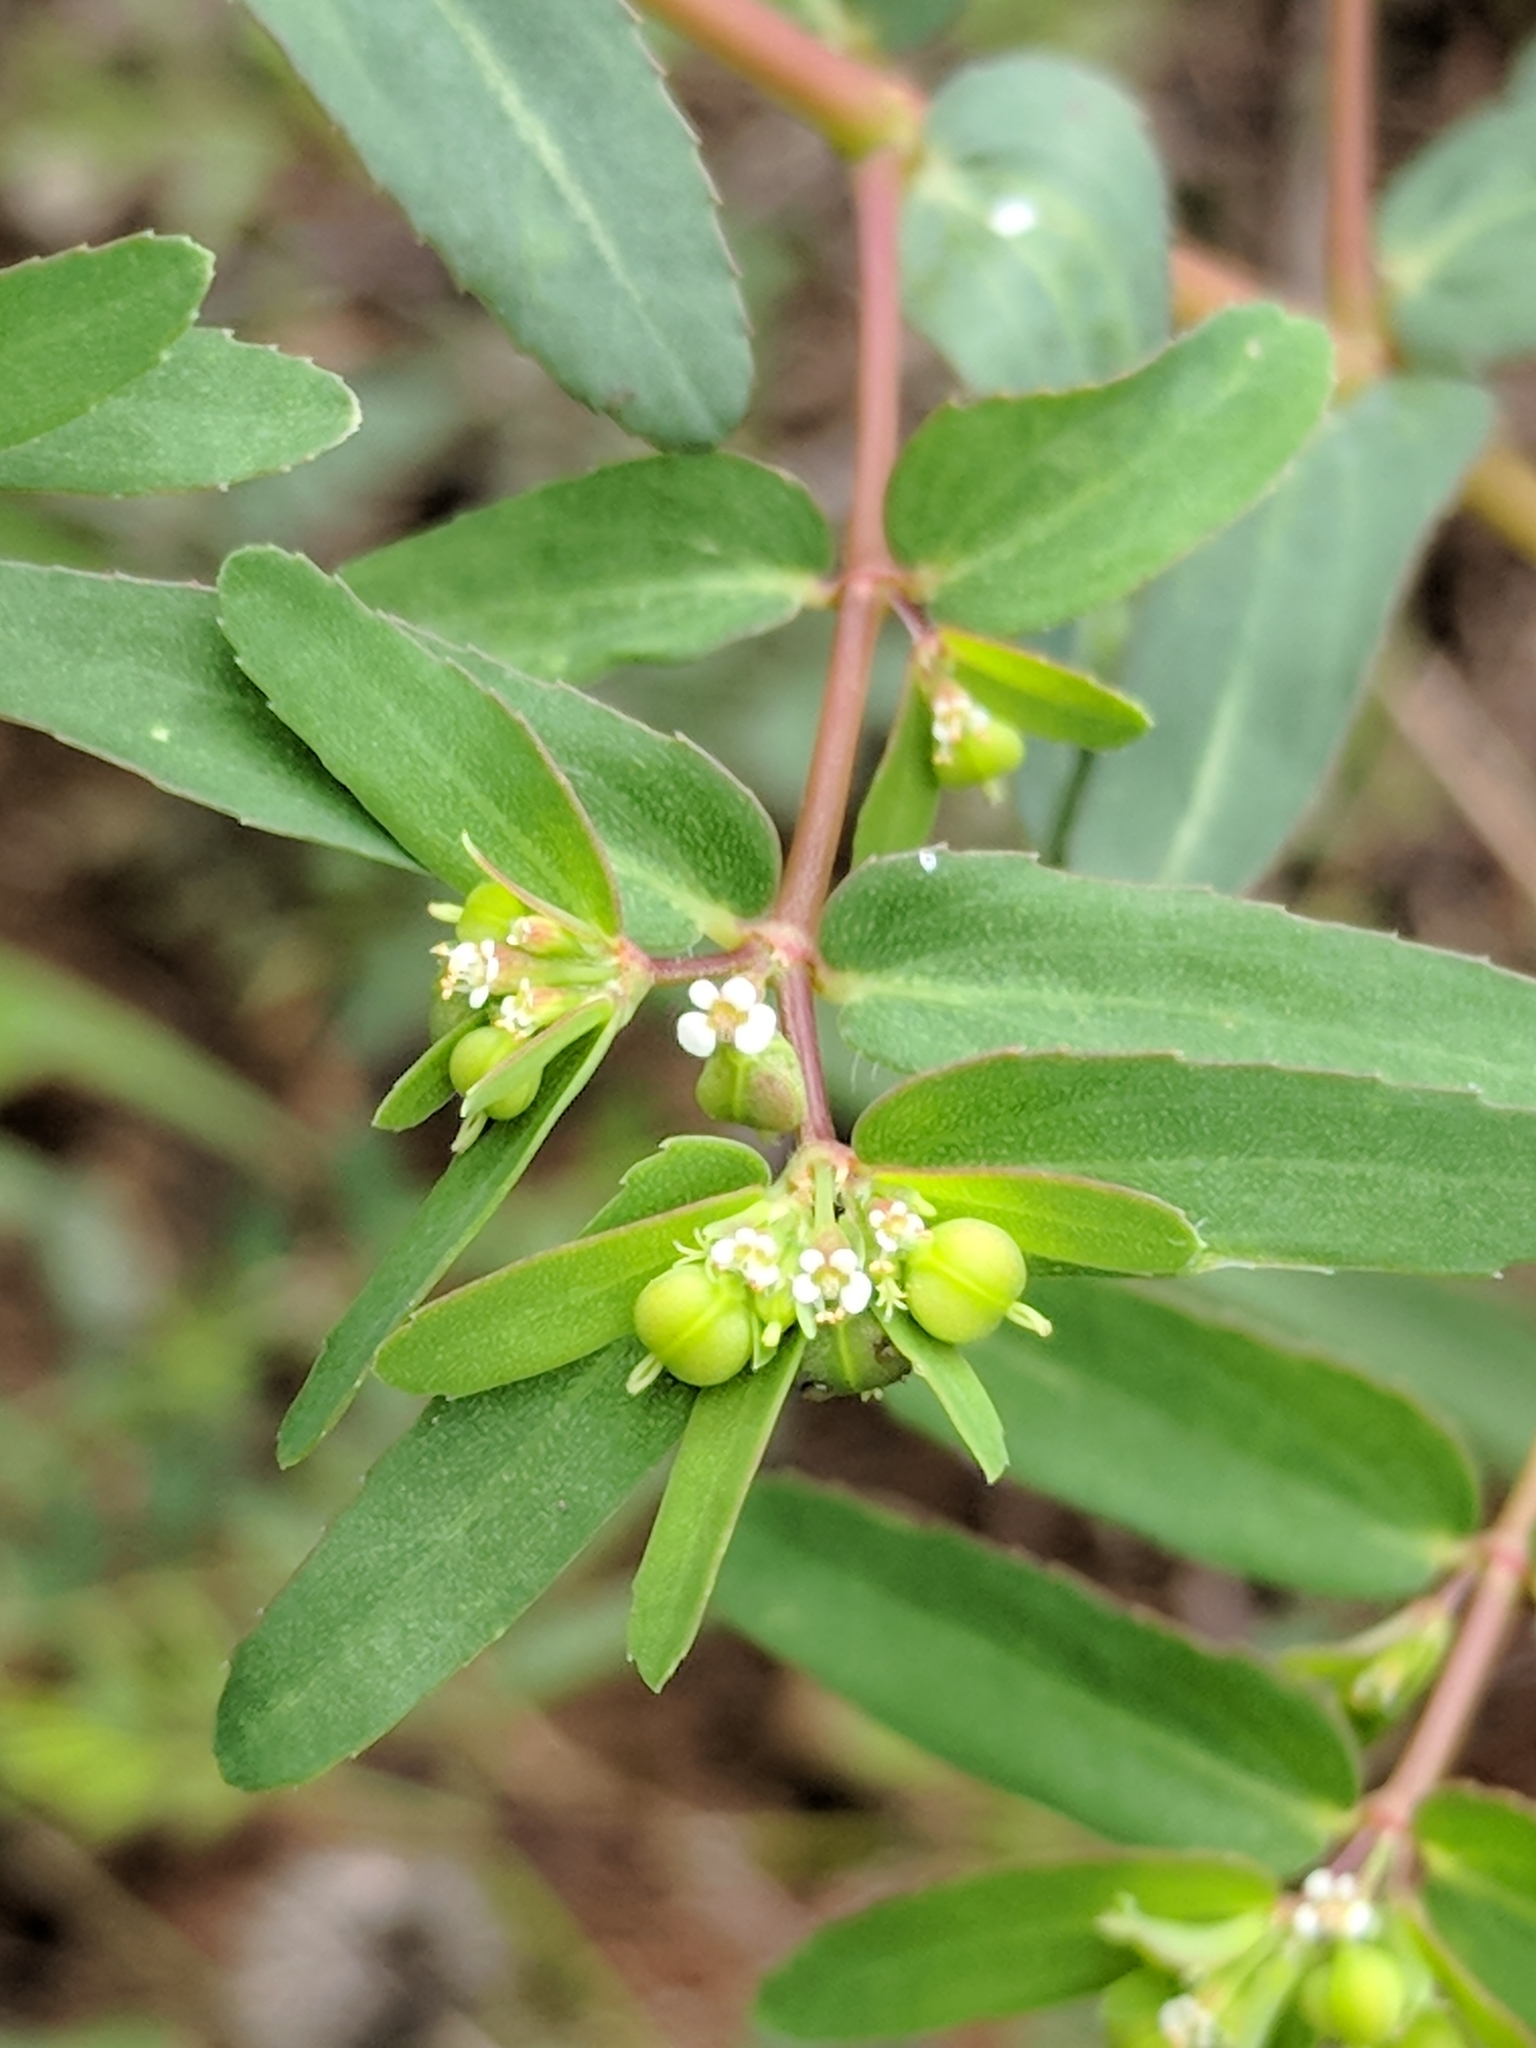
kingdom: Plantae
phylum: Tracheophyta
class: Magnoliopsida
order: Malpighiales
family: Euphorbiaceae
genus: Euphorbia
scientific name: Euphorbia nutans
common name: Eyebane
